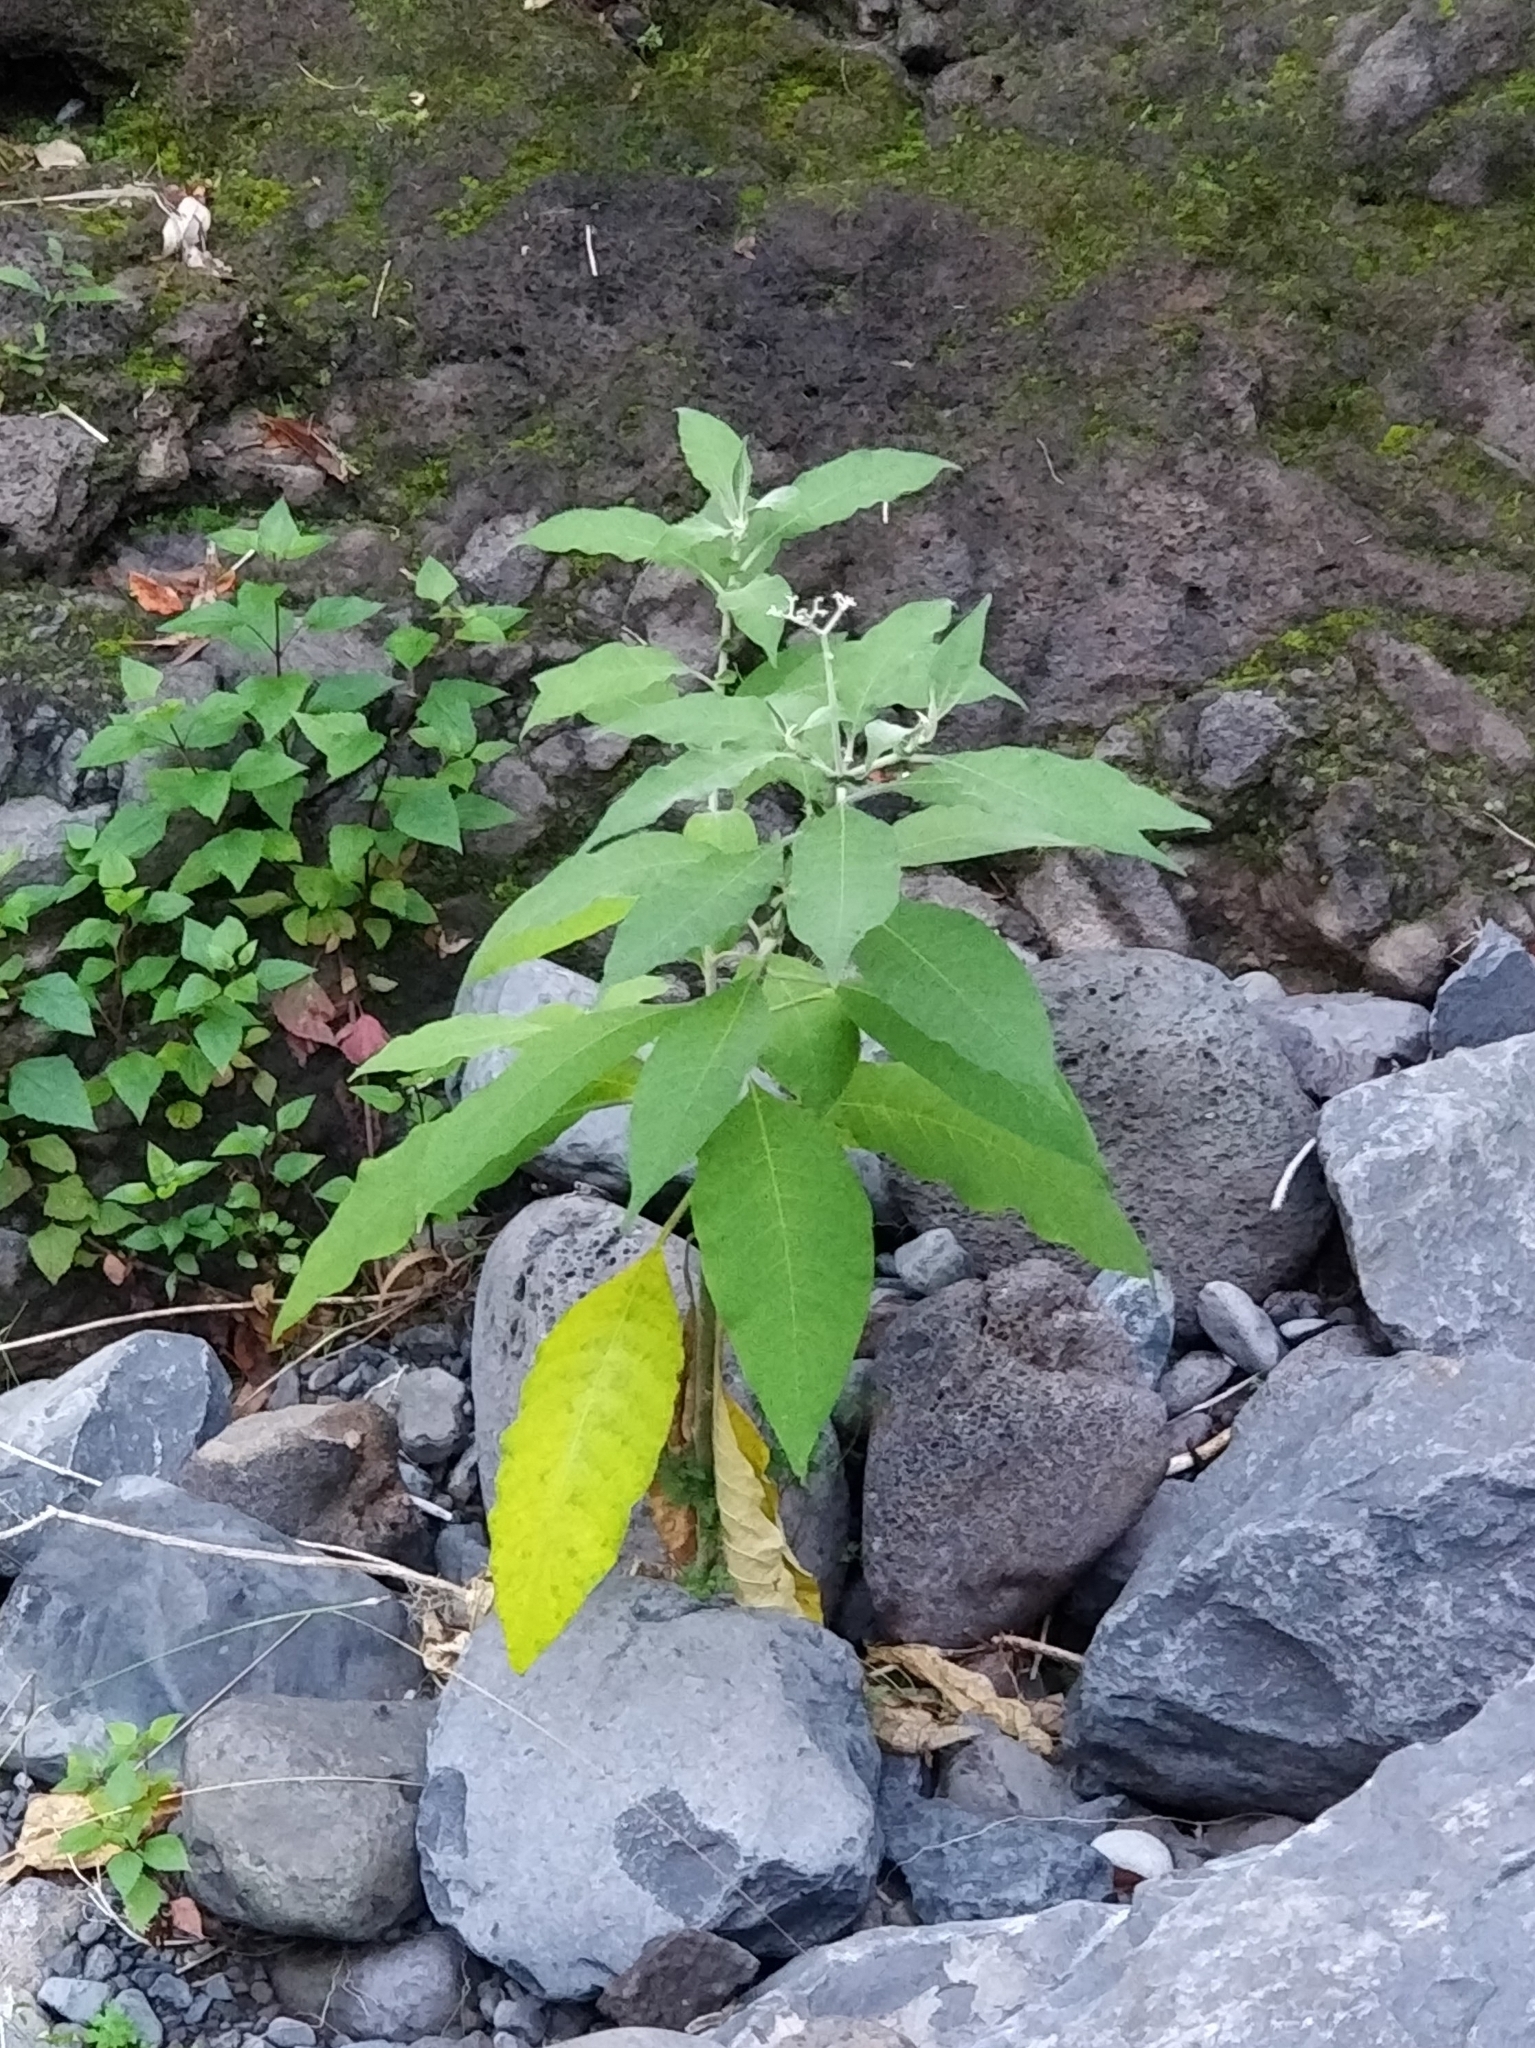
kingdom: Plantae
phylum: Tracheophyta
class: Magnoliopsida
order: Solanales
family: Solanaceae
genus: Solanum
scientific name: Solanum mauritianum
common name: Earleaf nightshade
